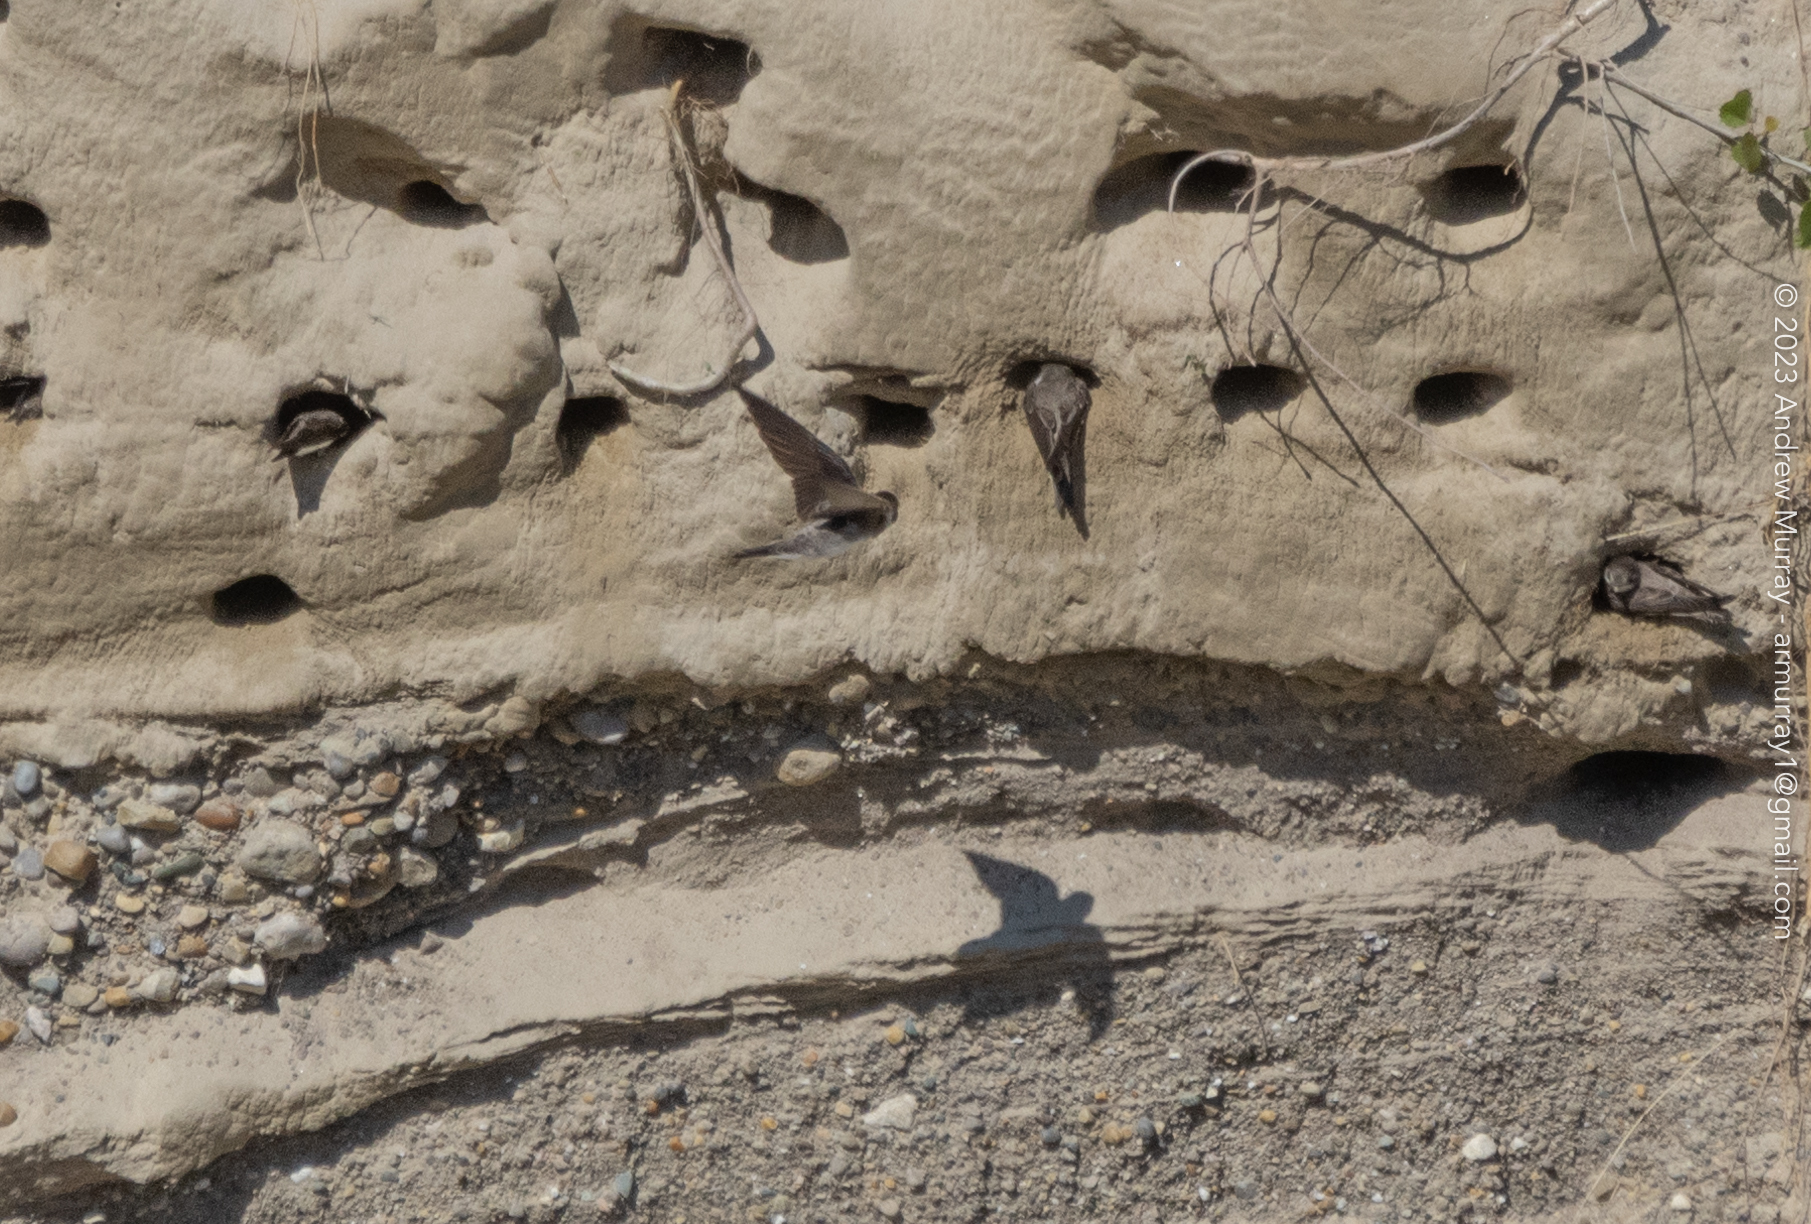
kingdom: Animalia
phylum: Chordata
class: Aves
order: Passeriformes
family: Hirundinidae
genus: Riparia
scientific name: Riparia riparia
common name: Sand martin
